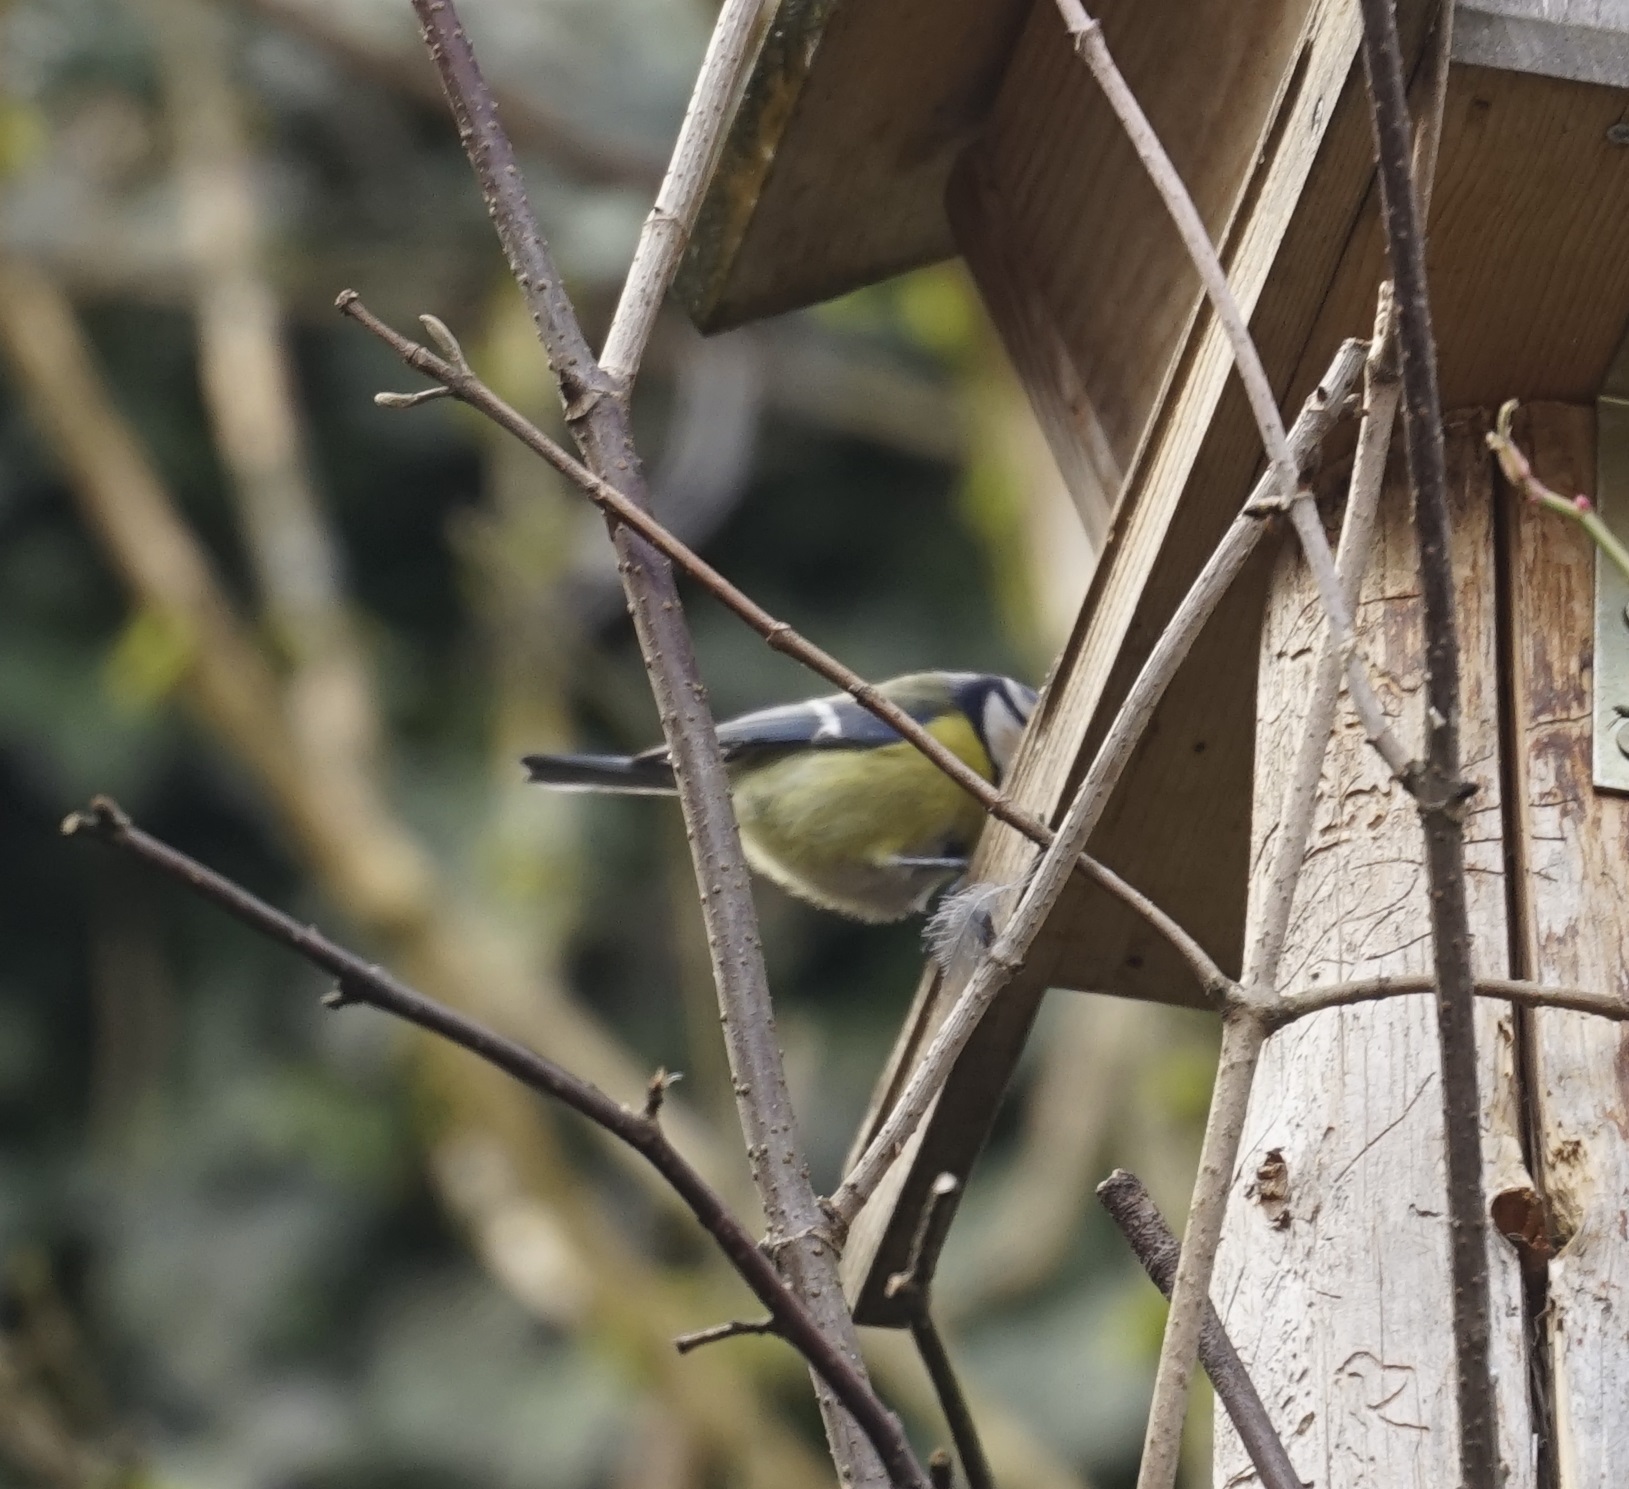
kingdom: Animalia
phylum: Chordata
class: Aves
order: Passeriformes
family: Paridae
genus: Cyanistes
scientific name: Cyanistes caeruleus
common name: Eurasian blue tit
